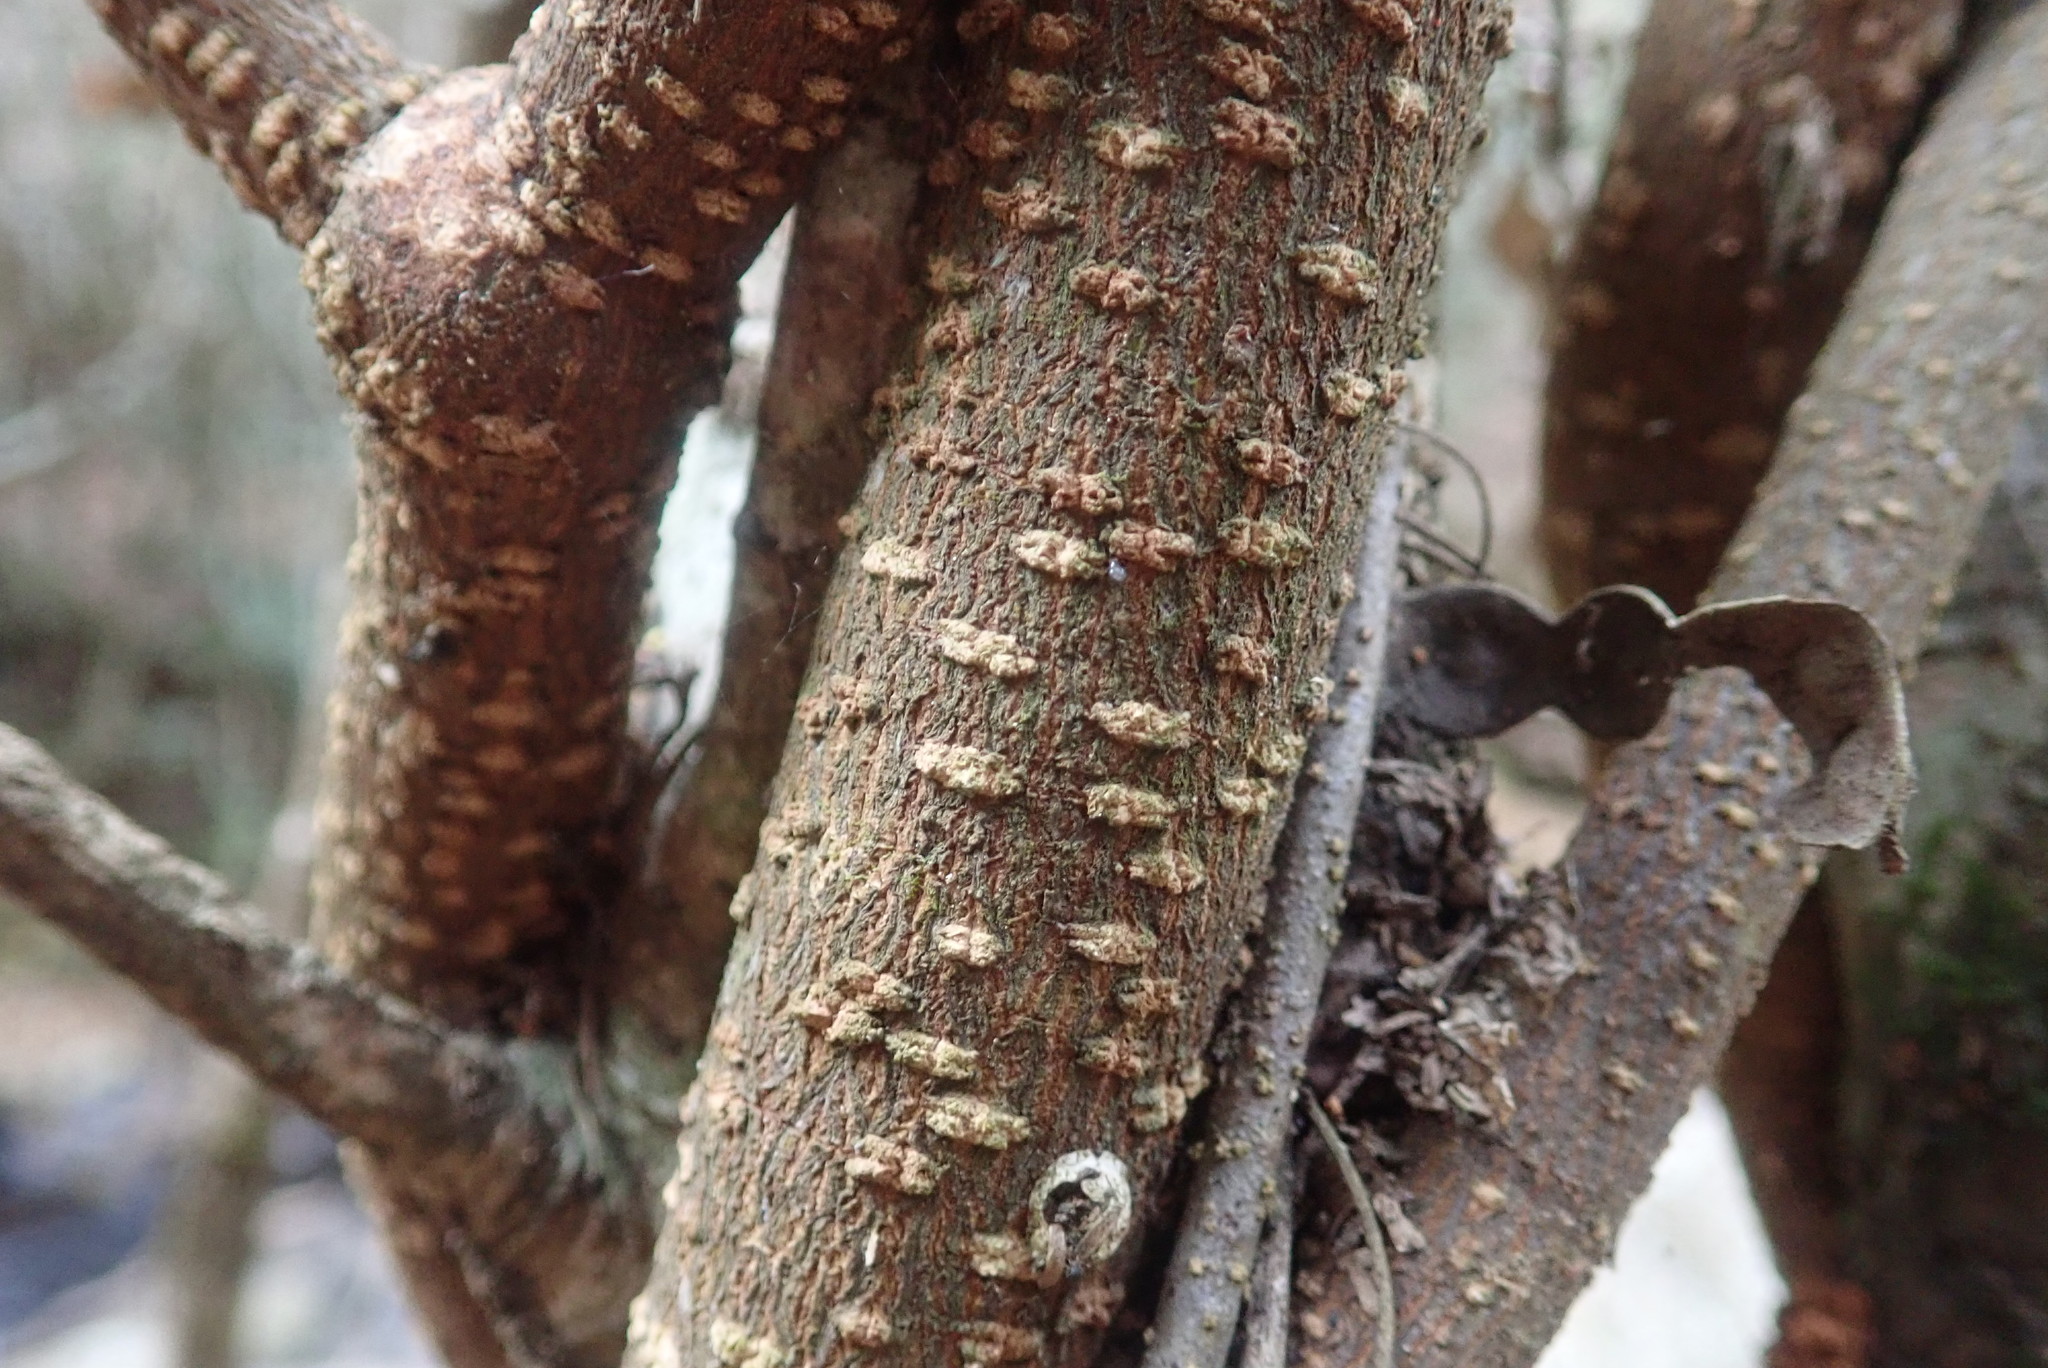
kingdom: Plantae
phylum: Tracheophyta
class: Magnoliopsida
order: Gentianales
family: Apocynaceae
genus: Secamone
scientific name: Secamone alpini
